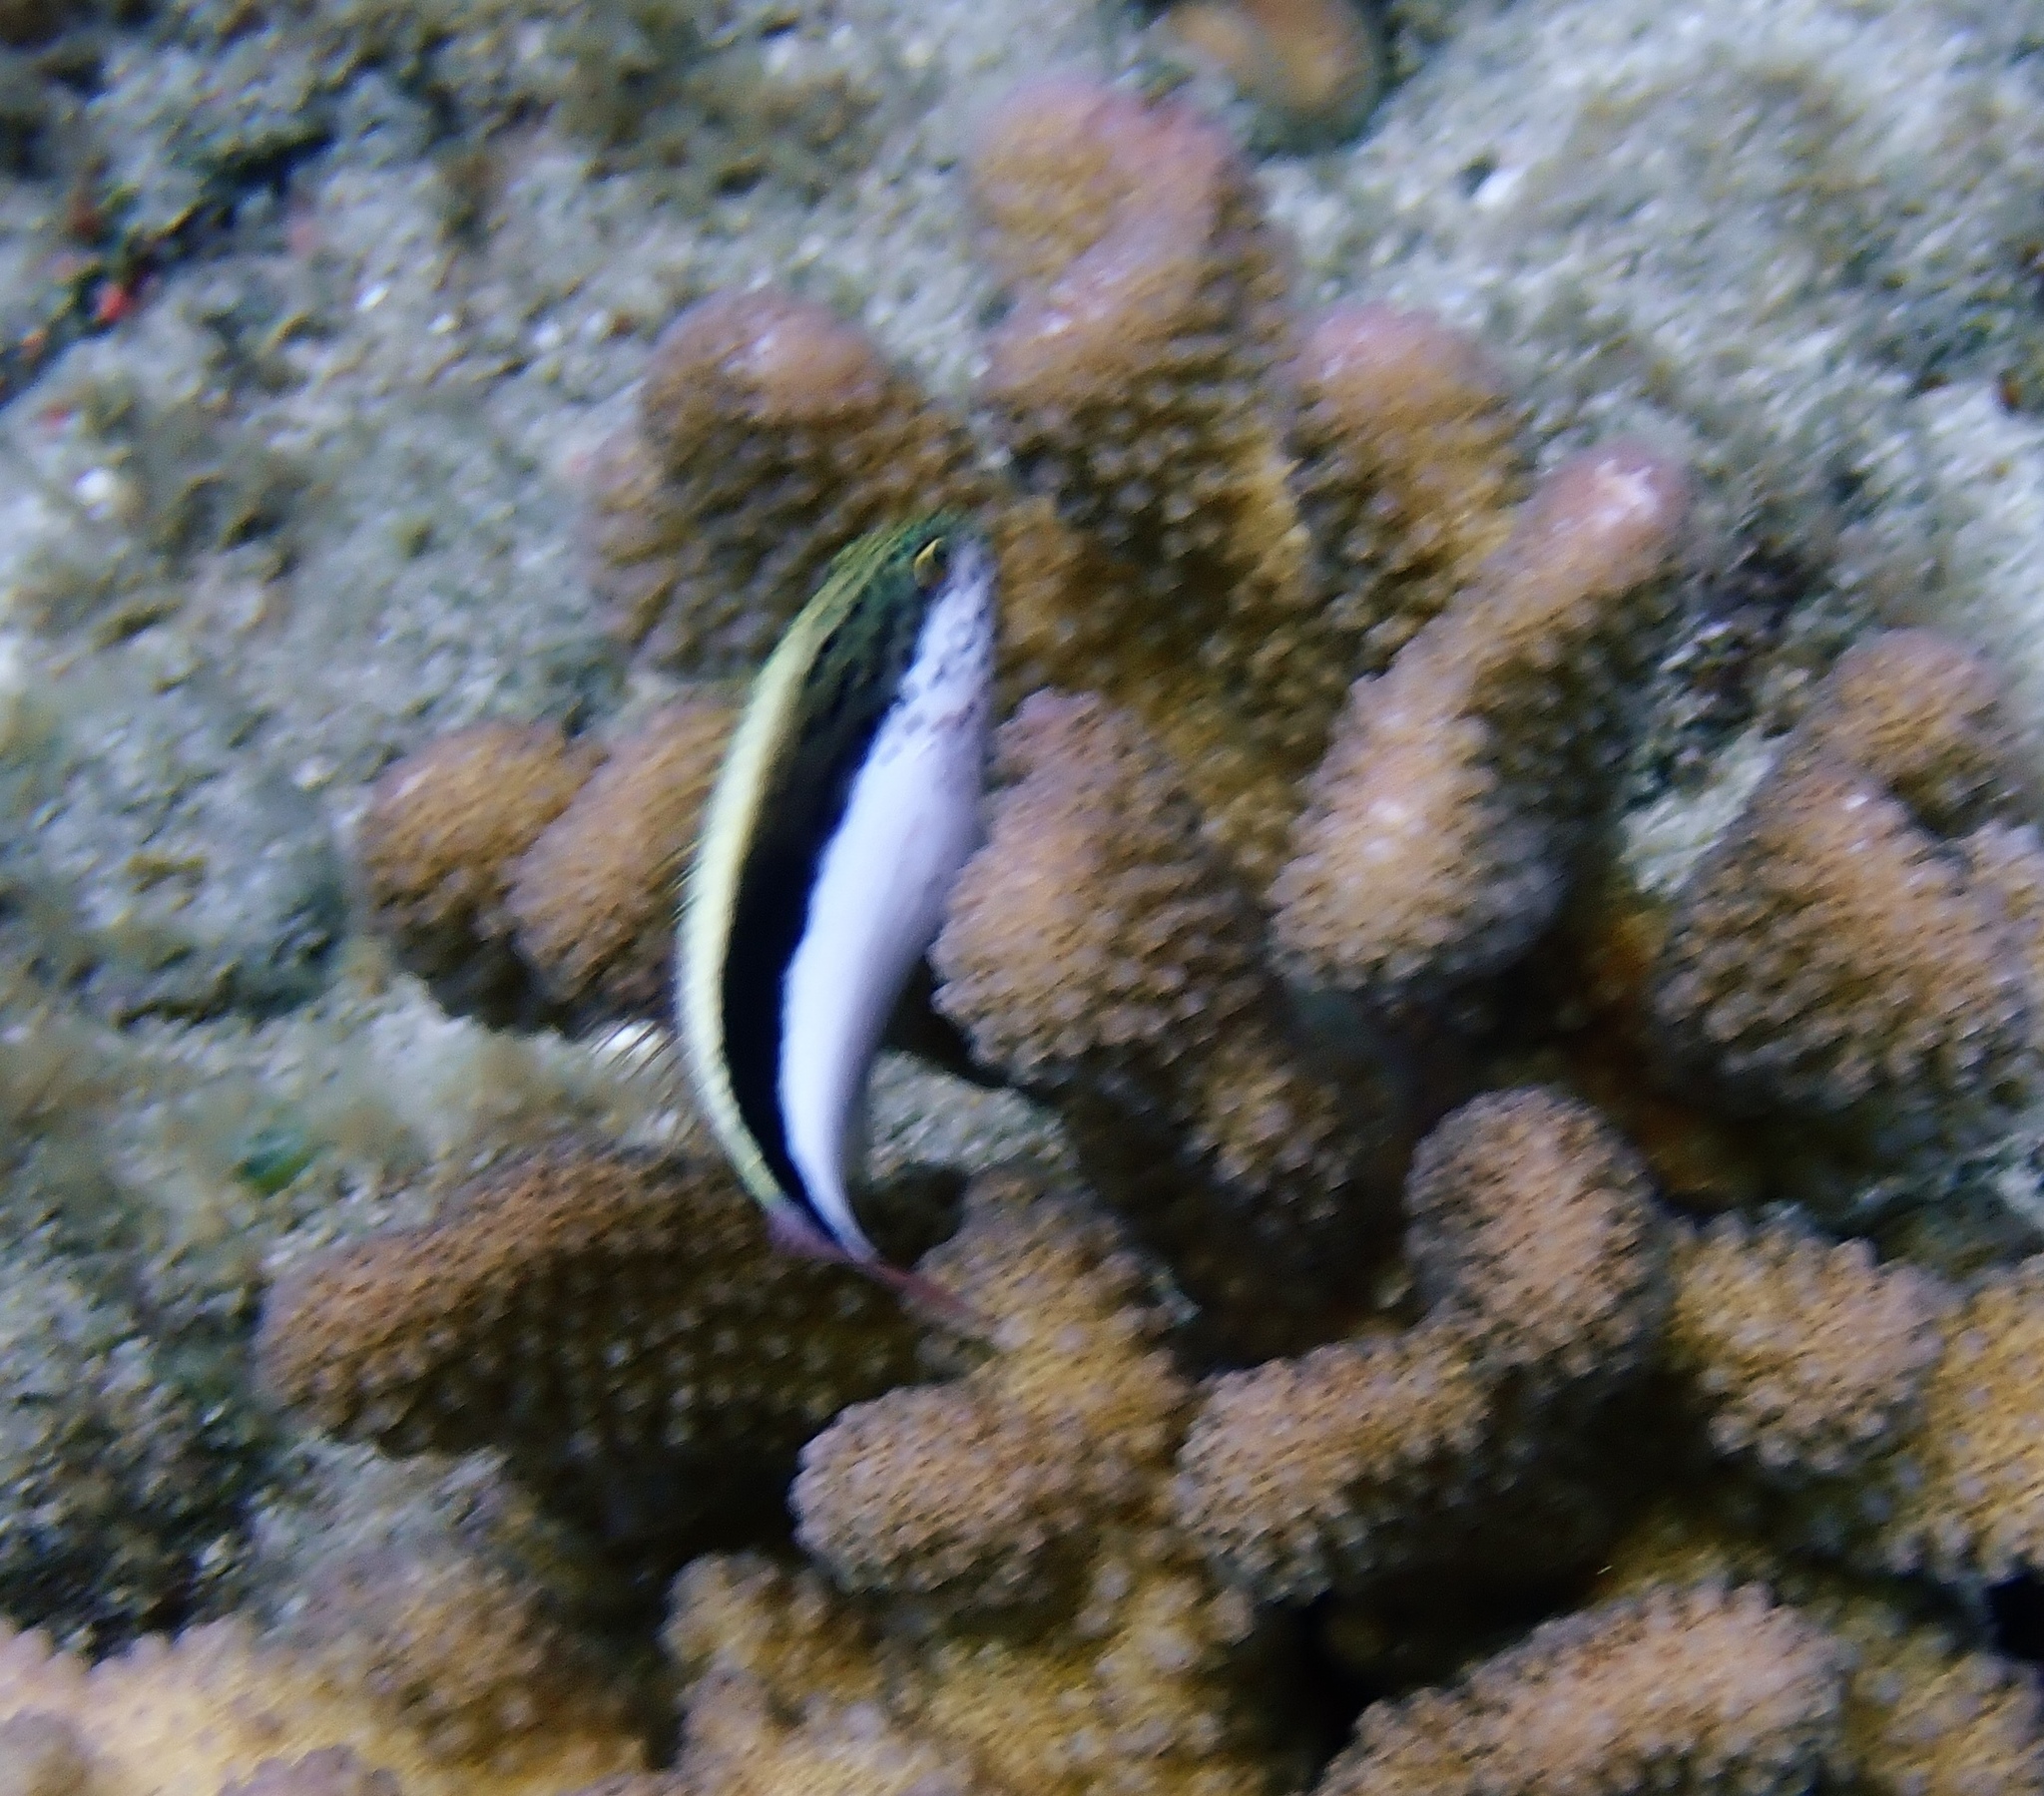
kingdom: Animalia
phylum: Chordata
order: Perciformes
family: Cirrhitidae
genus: Paracirrhites
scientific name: Paracirrhites forsteri
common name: Freckled hawkfish
